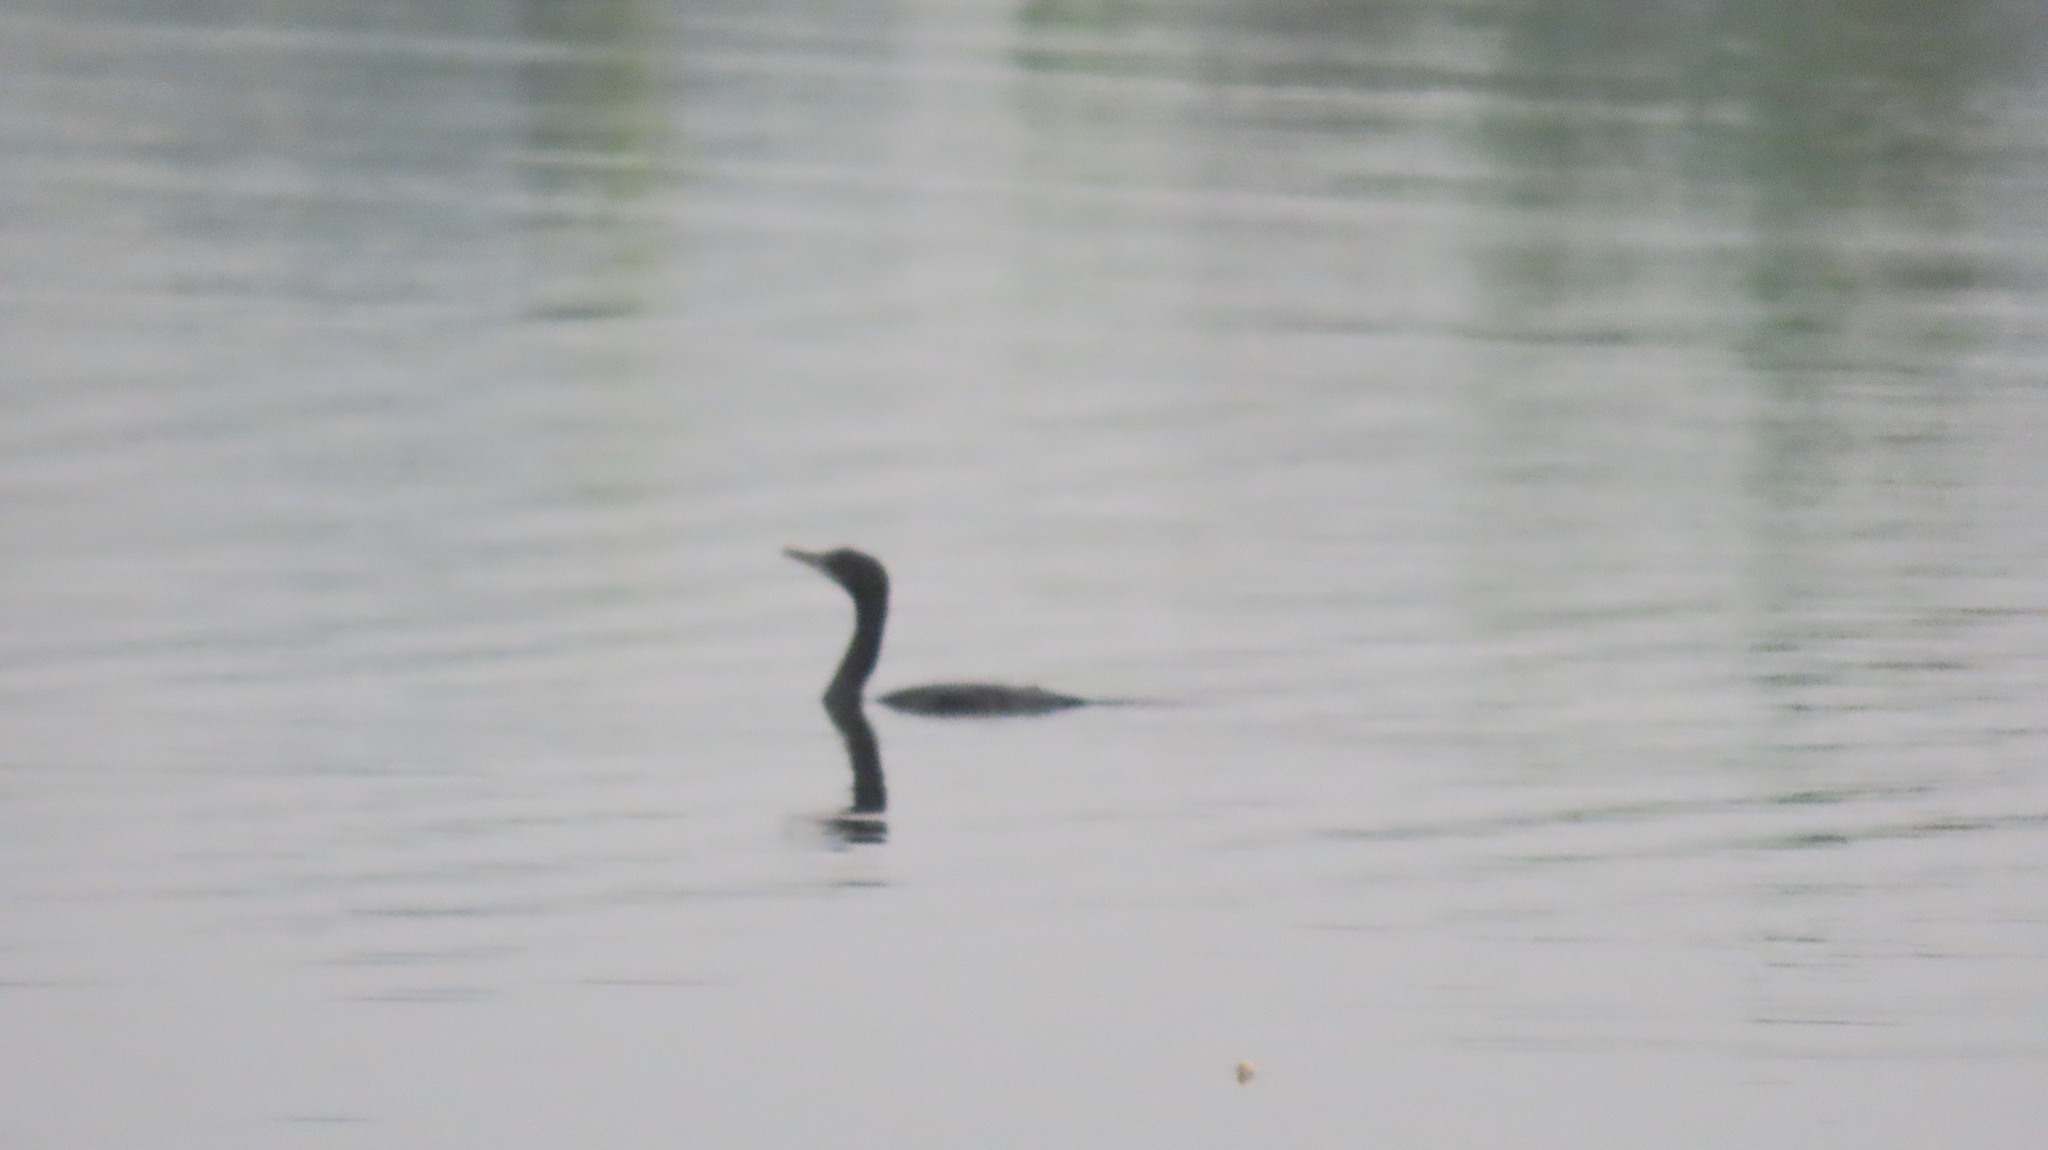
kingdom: Animalia
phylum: Chordata
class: Aves
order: Suliformes
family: Phalacrocoracidae
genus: Microcarbo
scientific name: Microcarbo niger
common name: Little cormorant
